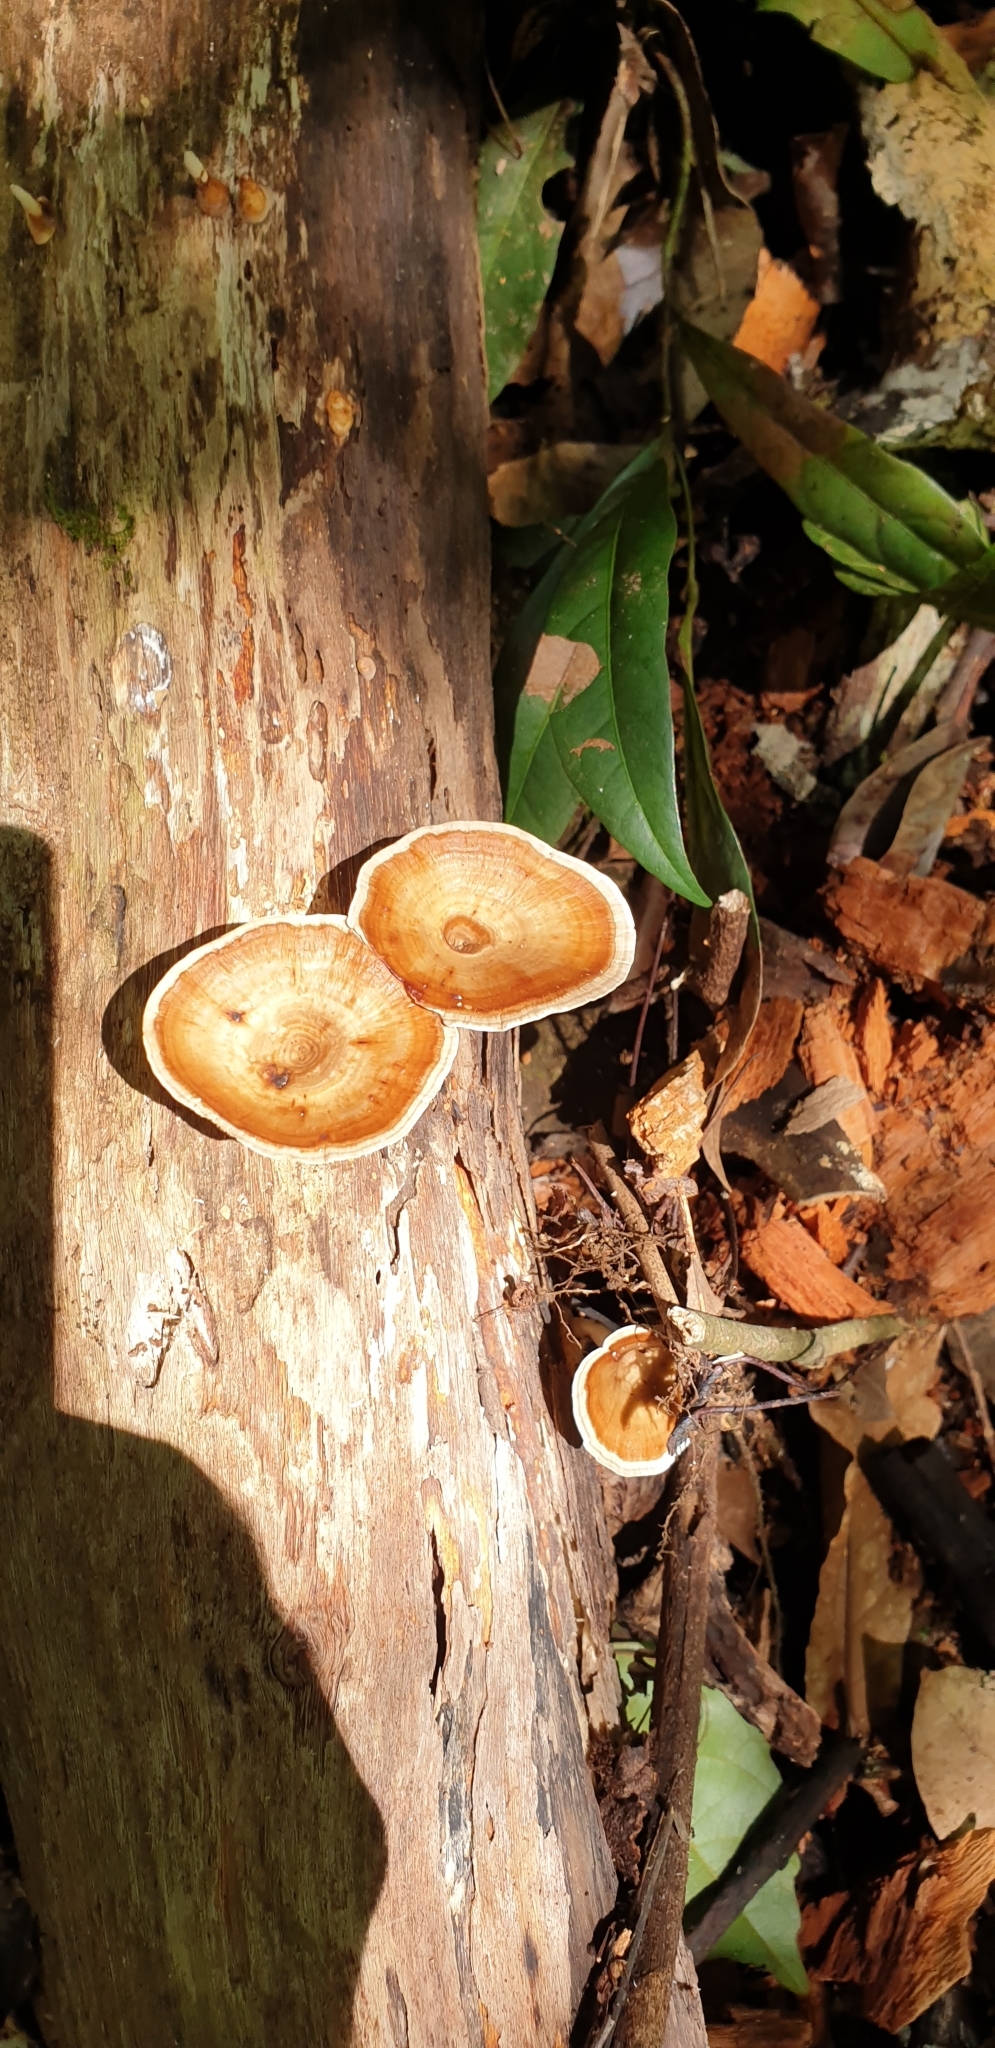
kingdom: Fungi
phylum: Basidiomycota
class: Agaricomycetes
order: Polyporales
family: Polyporaceae
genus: Microporus
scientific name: Microporus xanthopus
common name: Yellow-stemmed micropore
